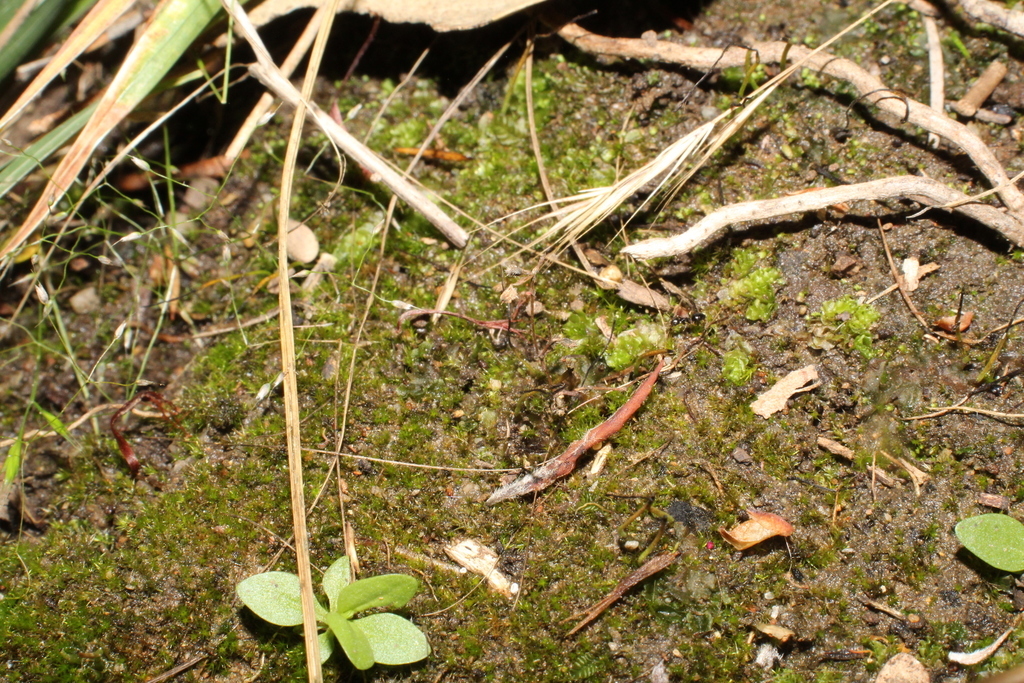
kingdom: Plantae
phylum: Marchantiophyta
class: Jungermanniopsida
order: Jungermanniales
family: Acrobolbaceae
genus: Lethocolea
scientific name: Lethocolea pansa
